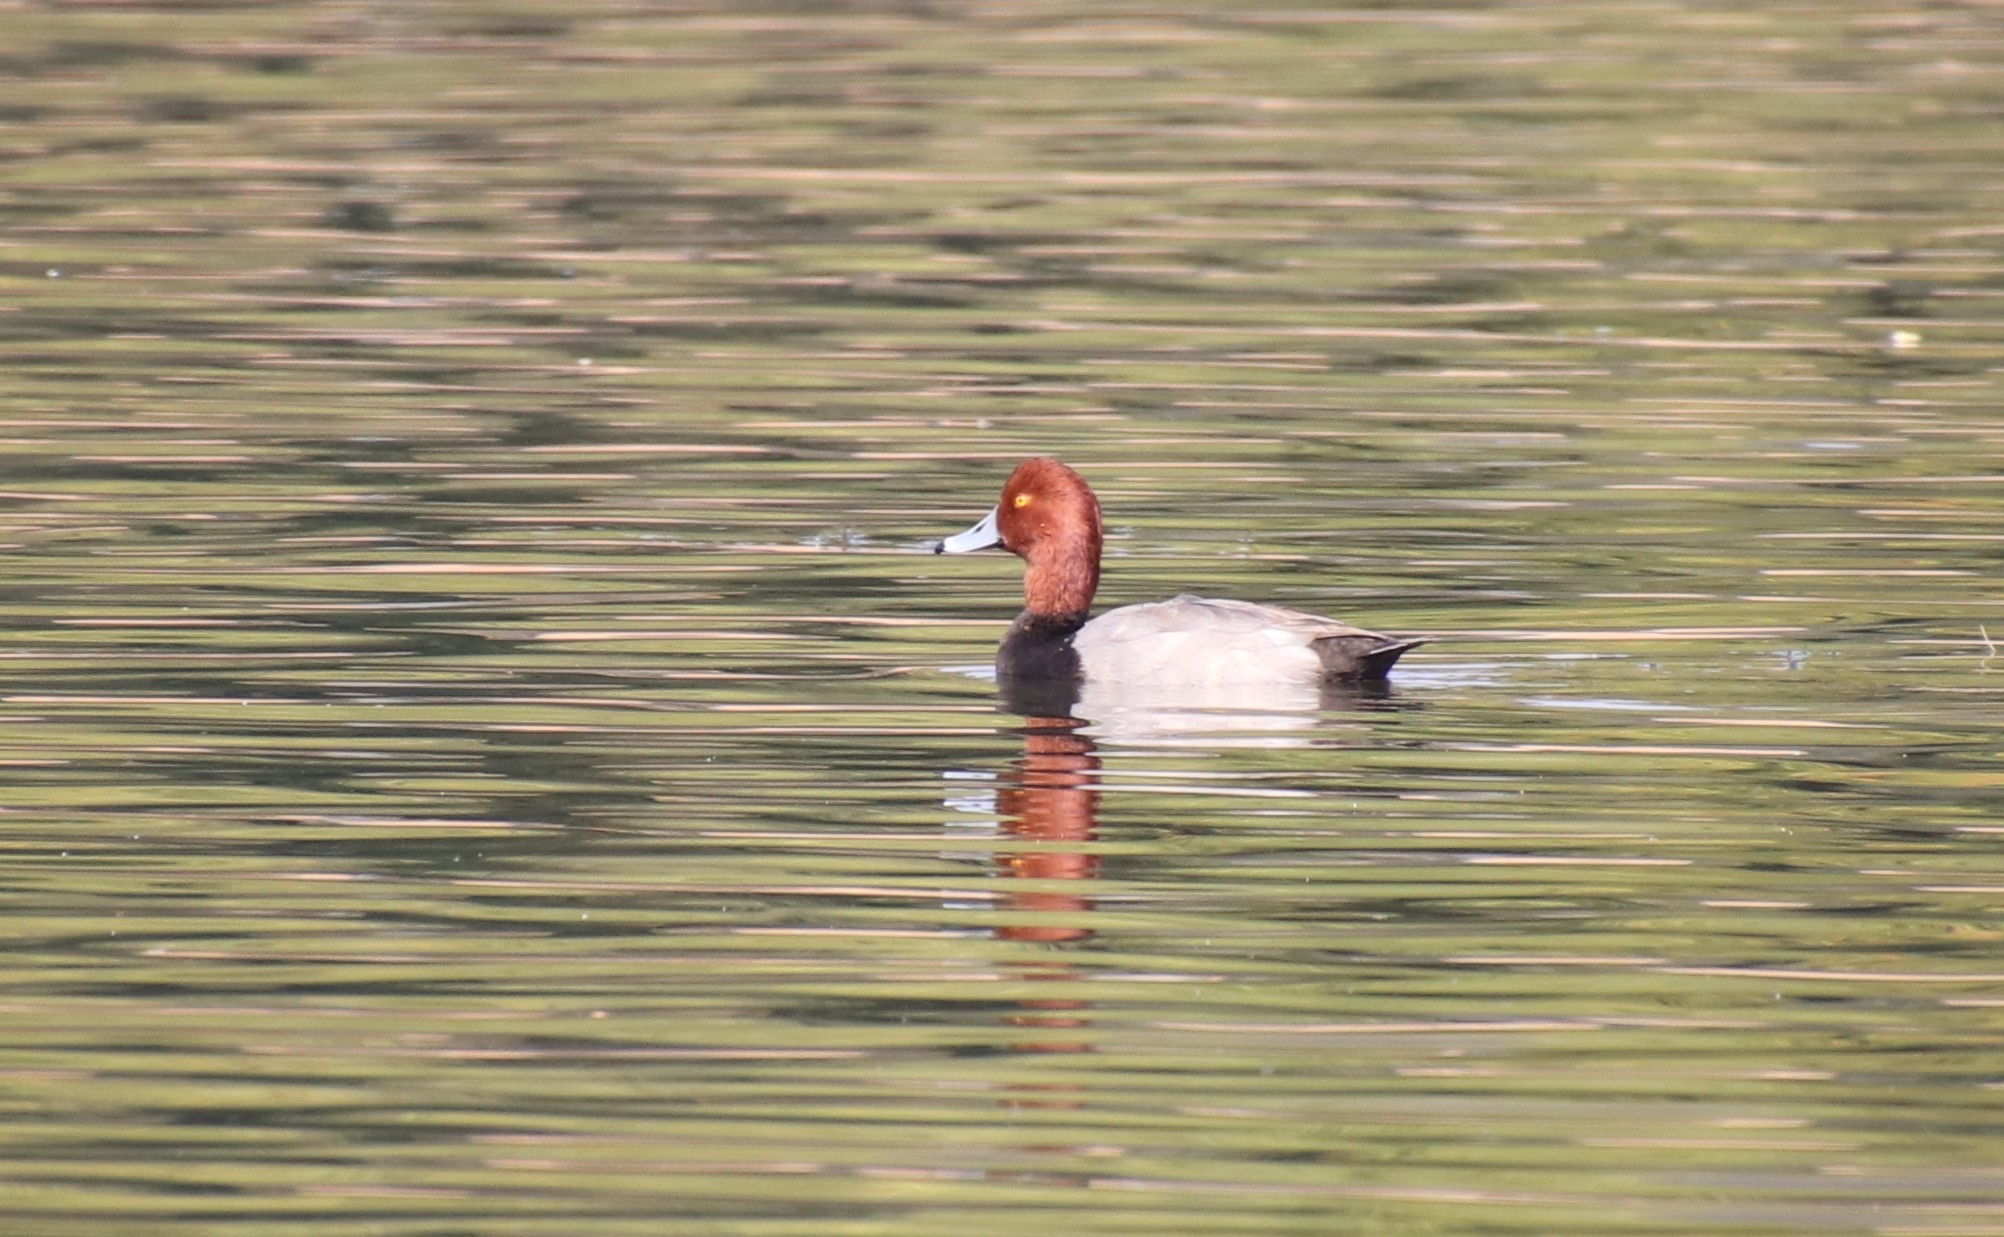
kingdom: Animalia
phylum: Chordata
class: Aves
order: Anseriformes
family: Anatidae
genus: Aythya
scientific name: Aythya americana
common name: Redhead
